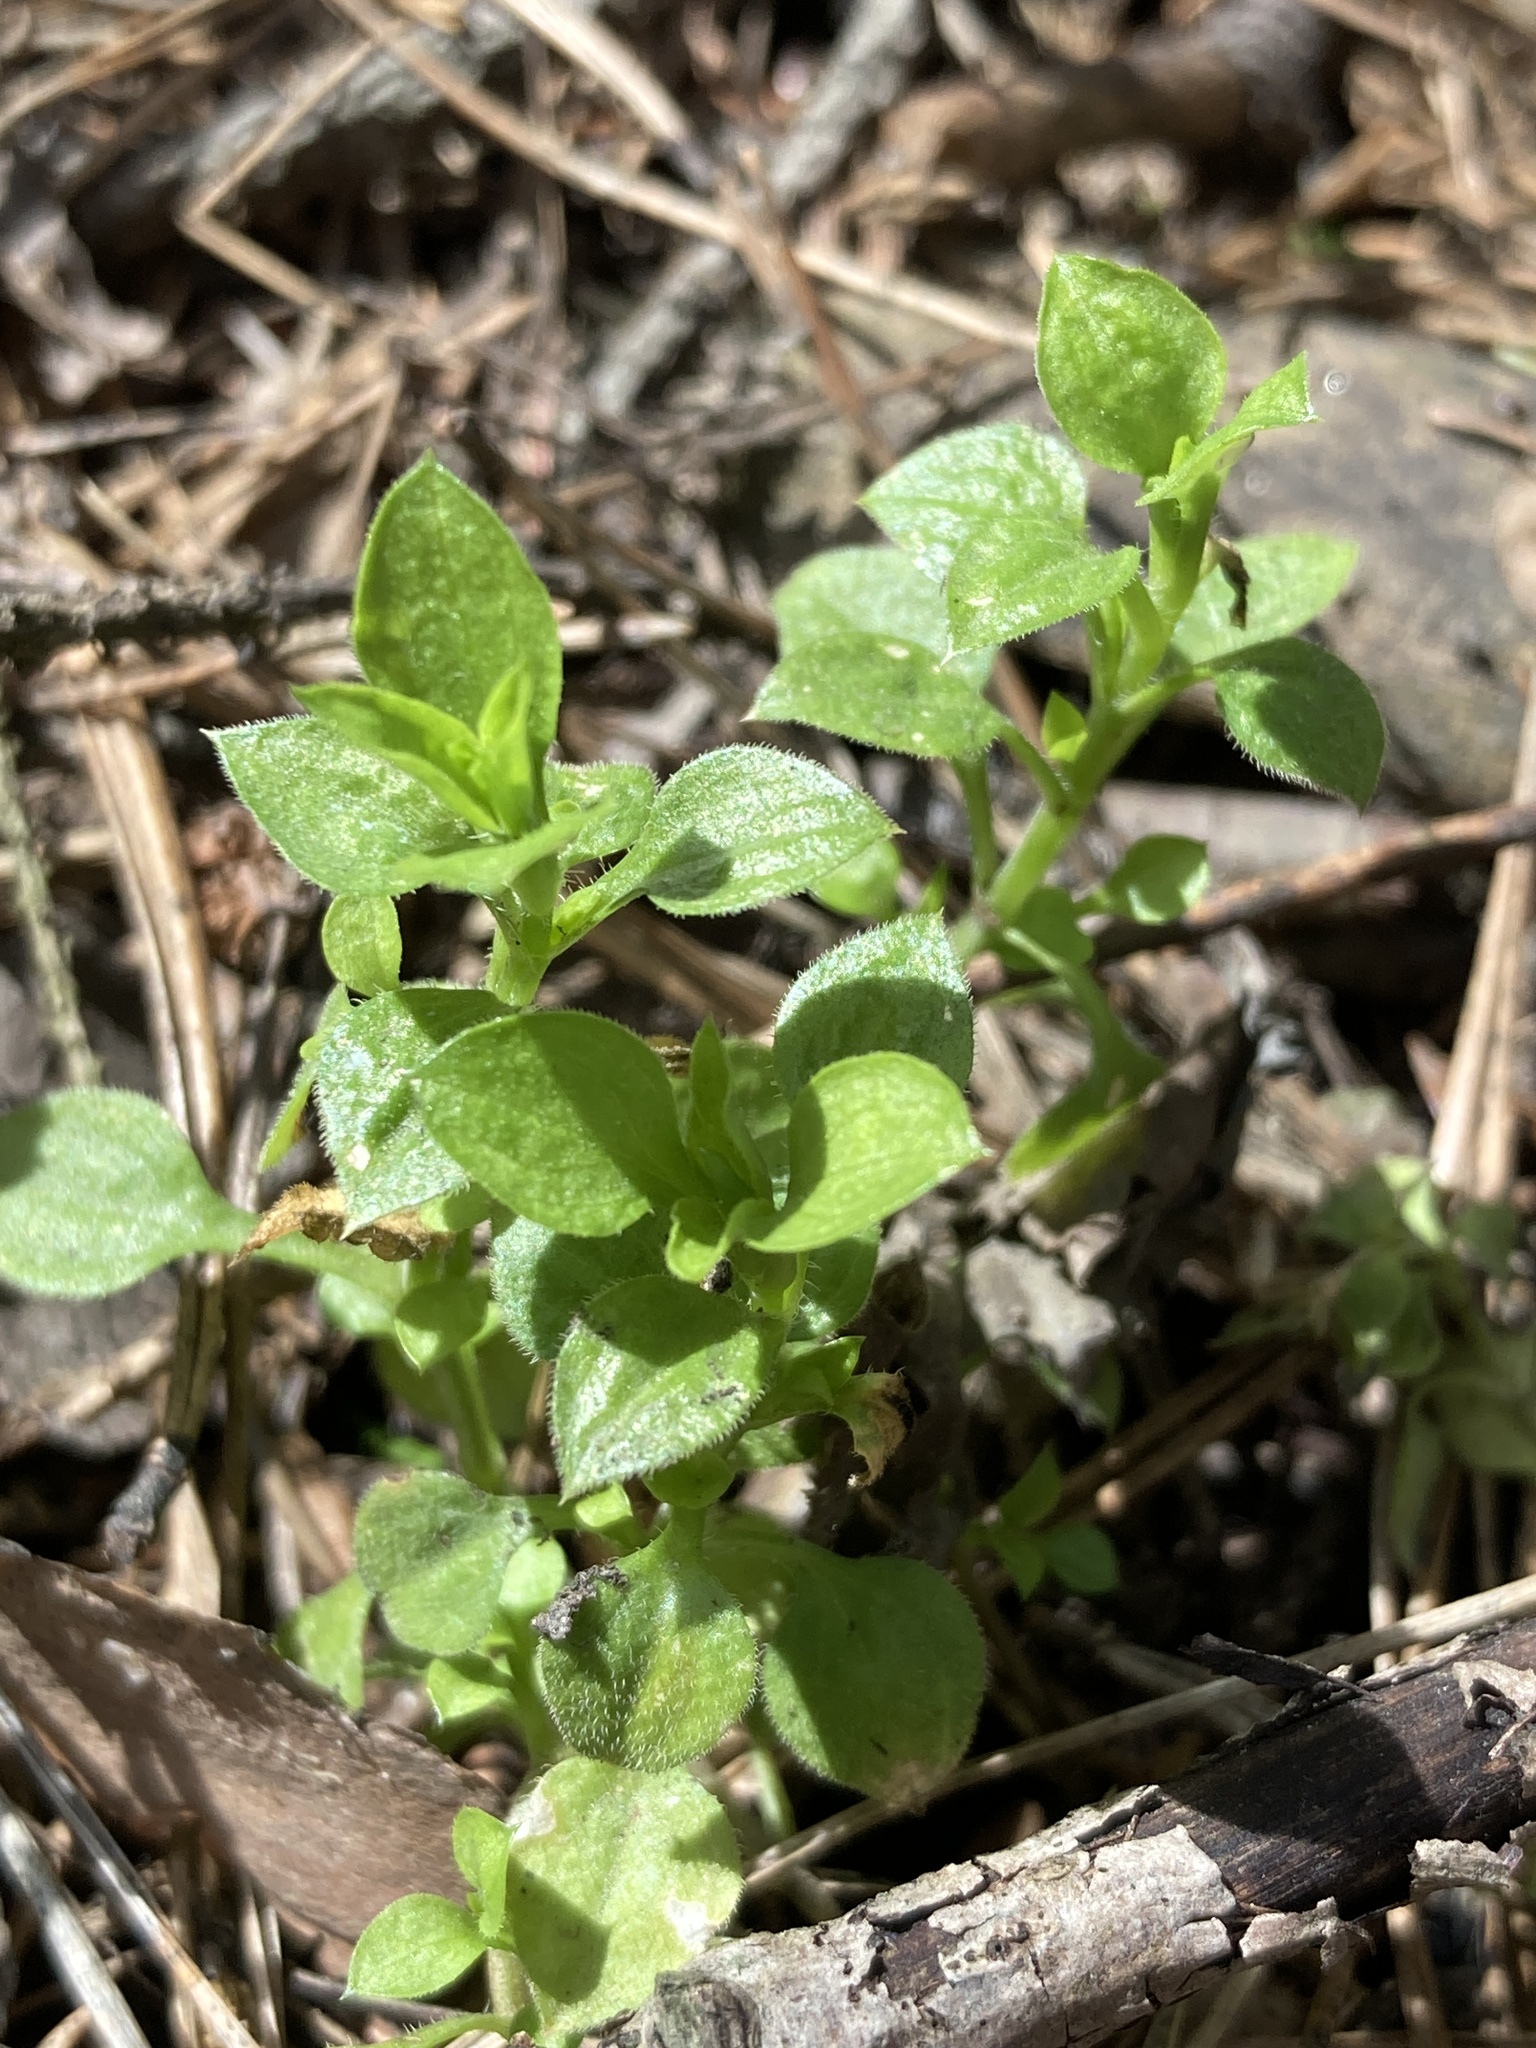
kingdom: Plantae
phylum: Tracheophyta
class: Magnoliopsida
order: Caryophyllales
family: Caryophyllaceae
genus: Moehringia
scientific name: Moehringia trinervia
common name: Three-nerved sandwort
